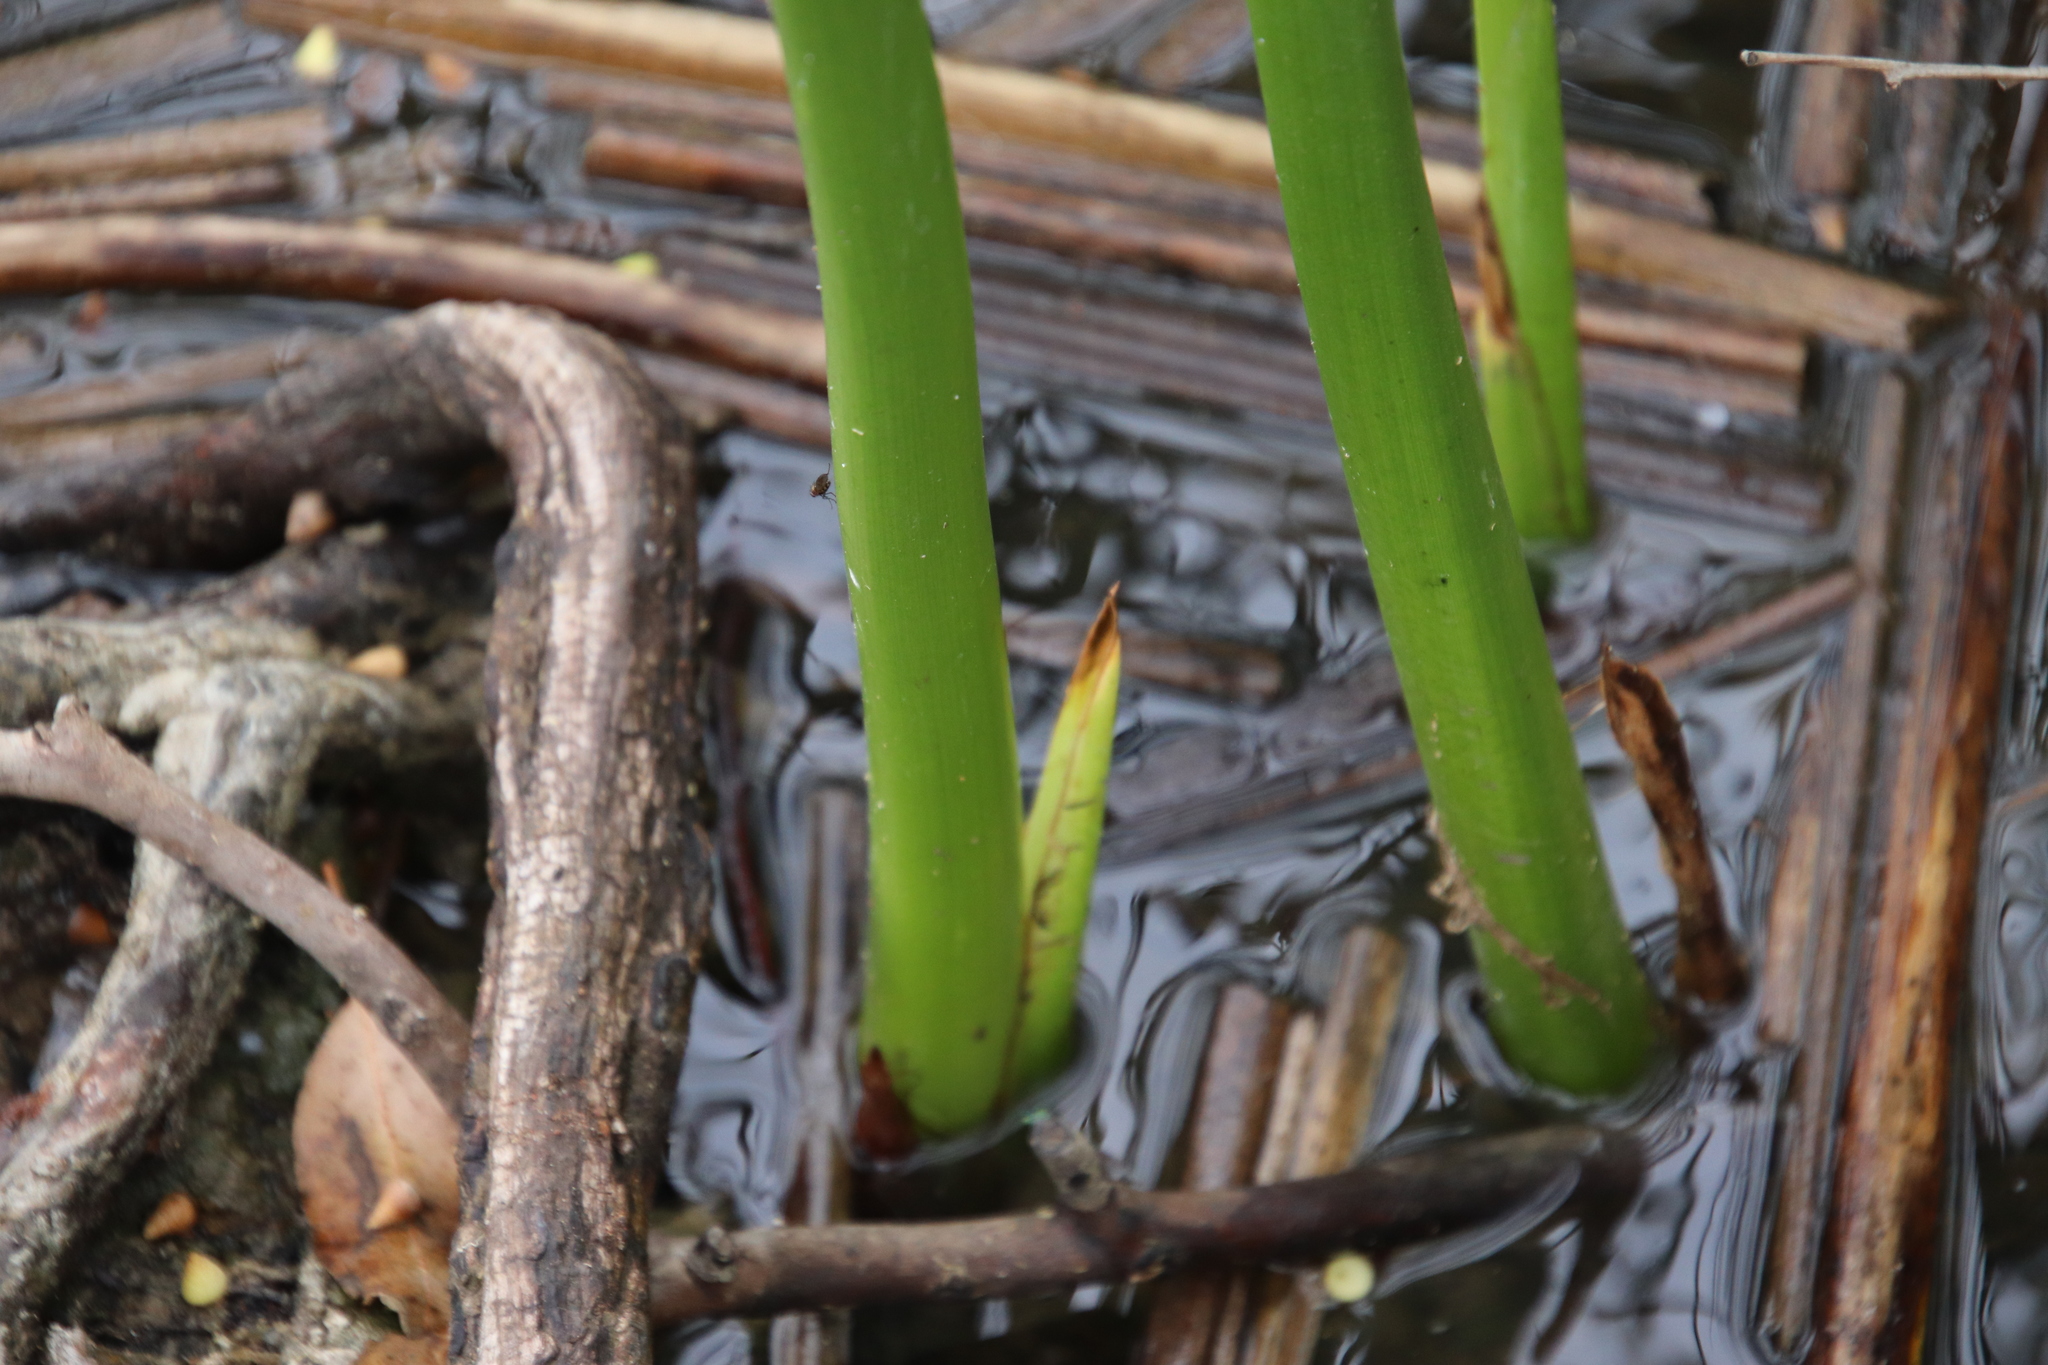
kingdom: Plantae
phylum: Tracheophyta
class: Liliopsida
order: Poales
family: Cyperaceae
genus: Schoenoplectus
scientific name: Schoenoplectus californicus
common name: California bulrush
